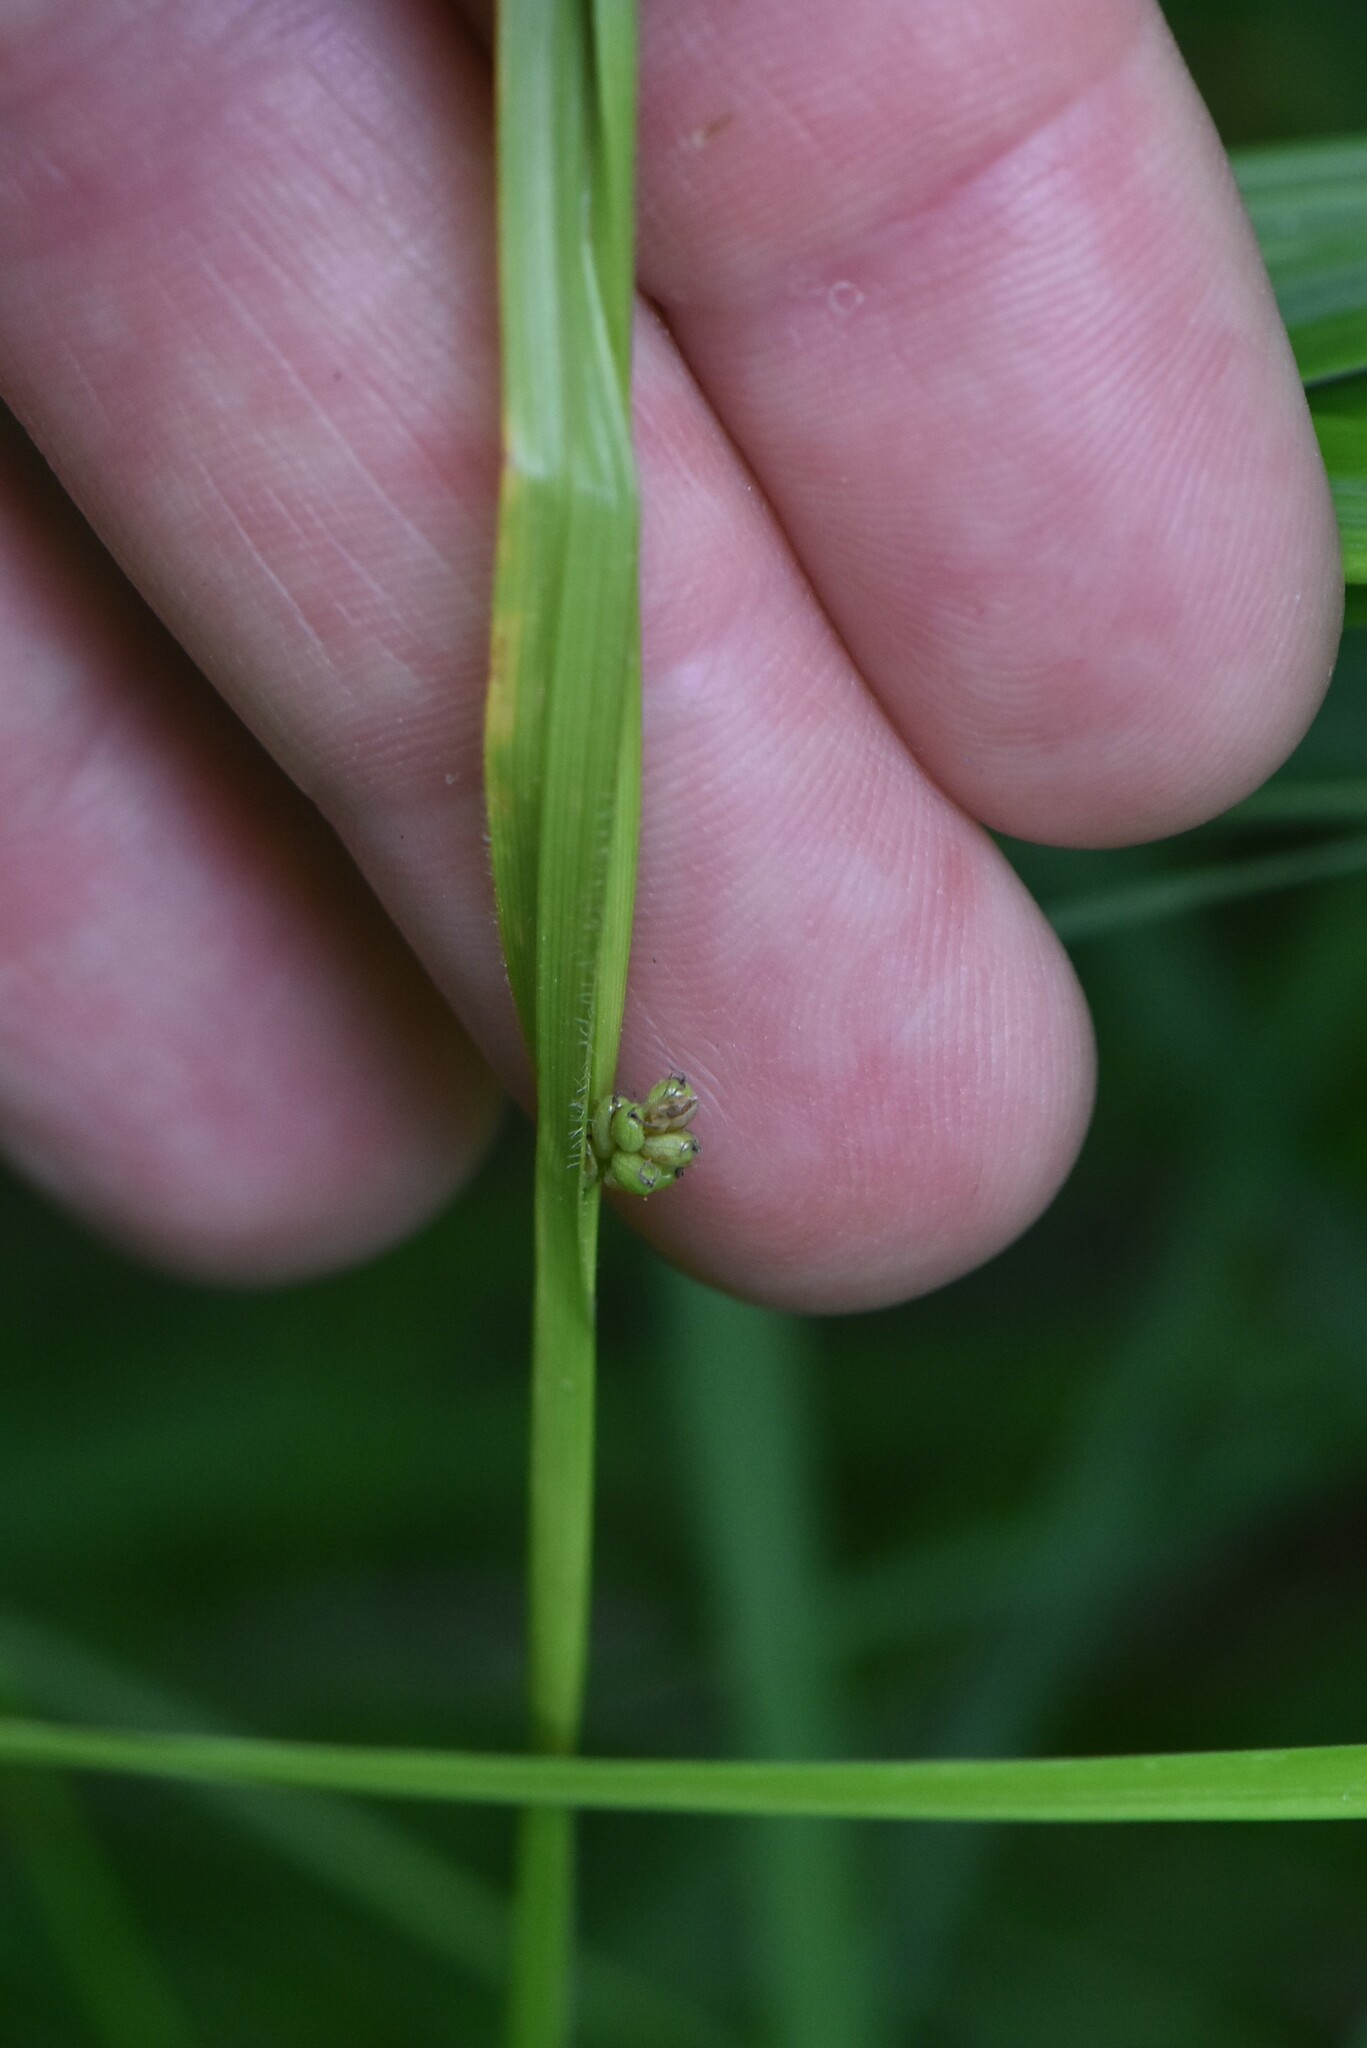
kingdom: Plantae
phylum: Tracheophyta
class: Liliopsida
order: Poales
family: Cyperaceae
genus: Carex
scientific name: Carex pallescens
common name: Pale sedge
